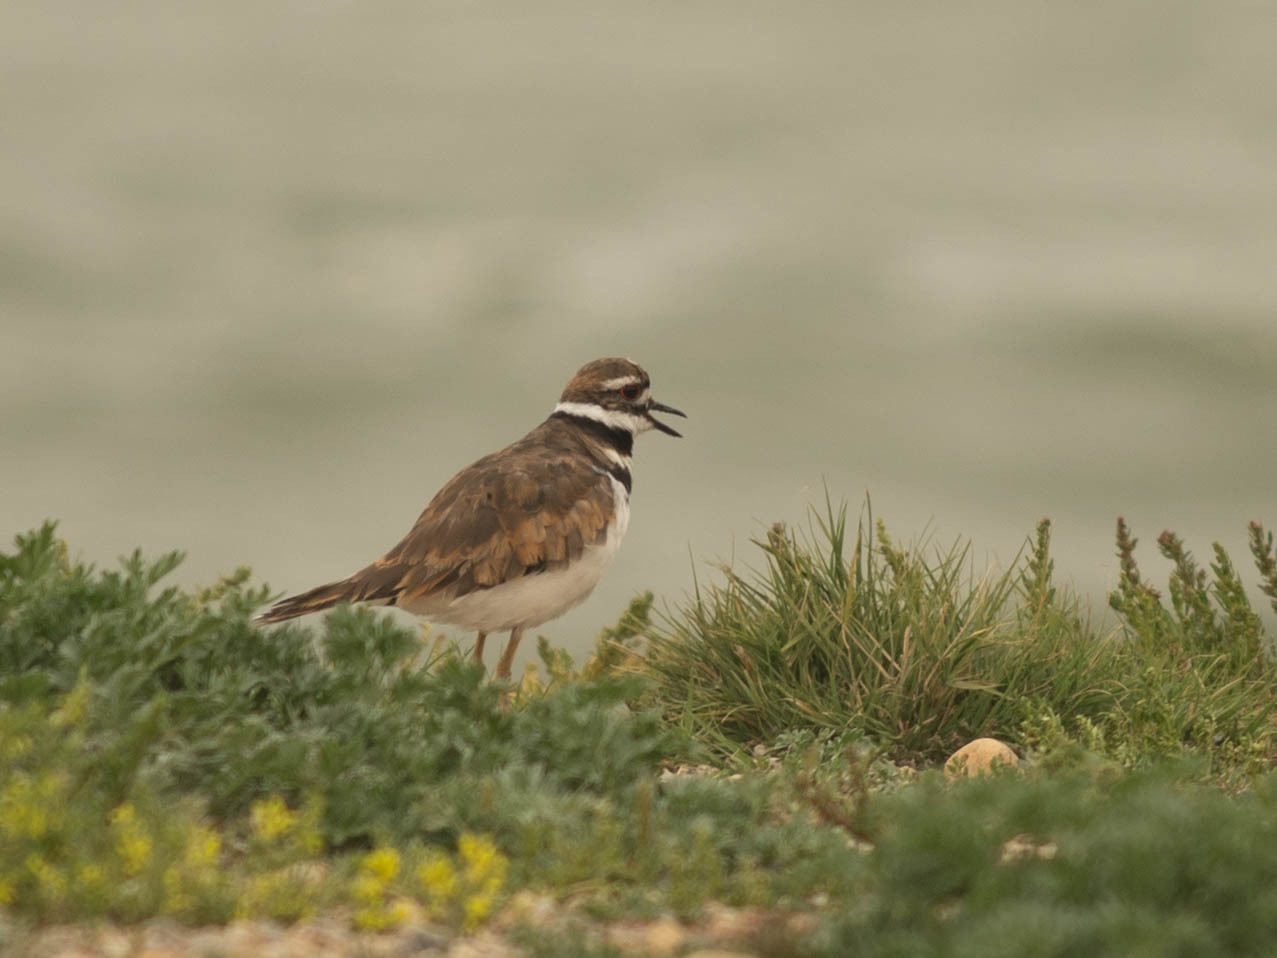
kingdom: Animalia
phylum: Chordata
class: Aves
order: Charadriiformes
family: Charadriidae
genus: Charadrius
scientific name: Charadrius vociferus
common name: Killdeer
